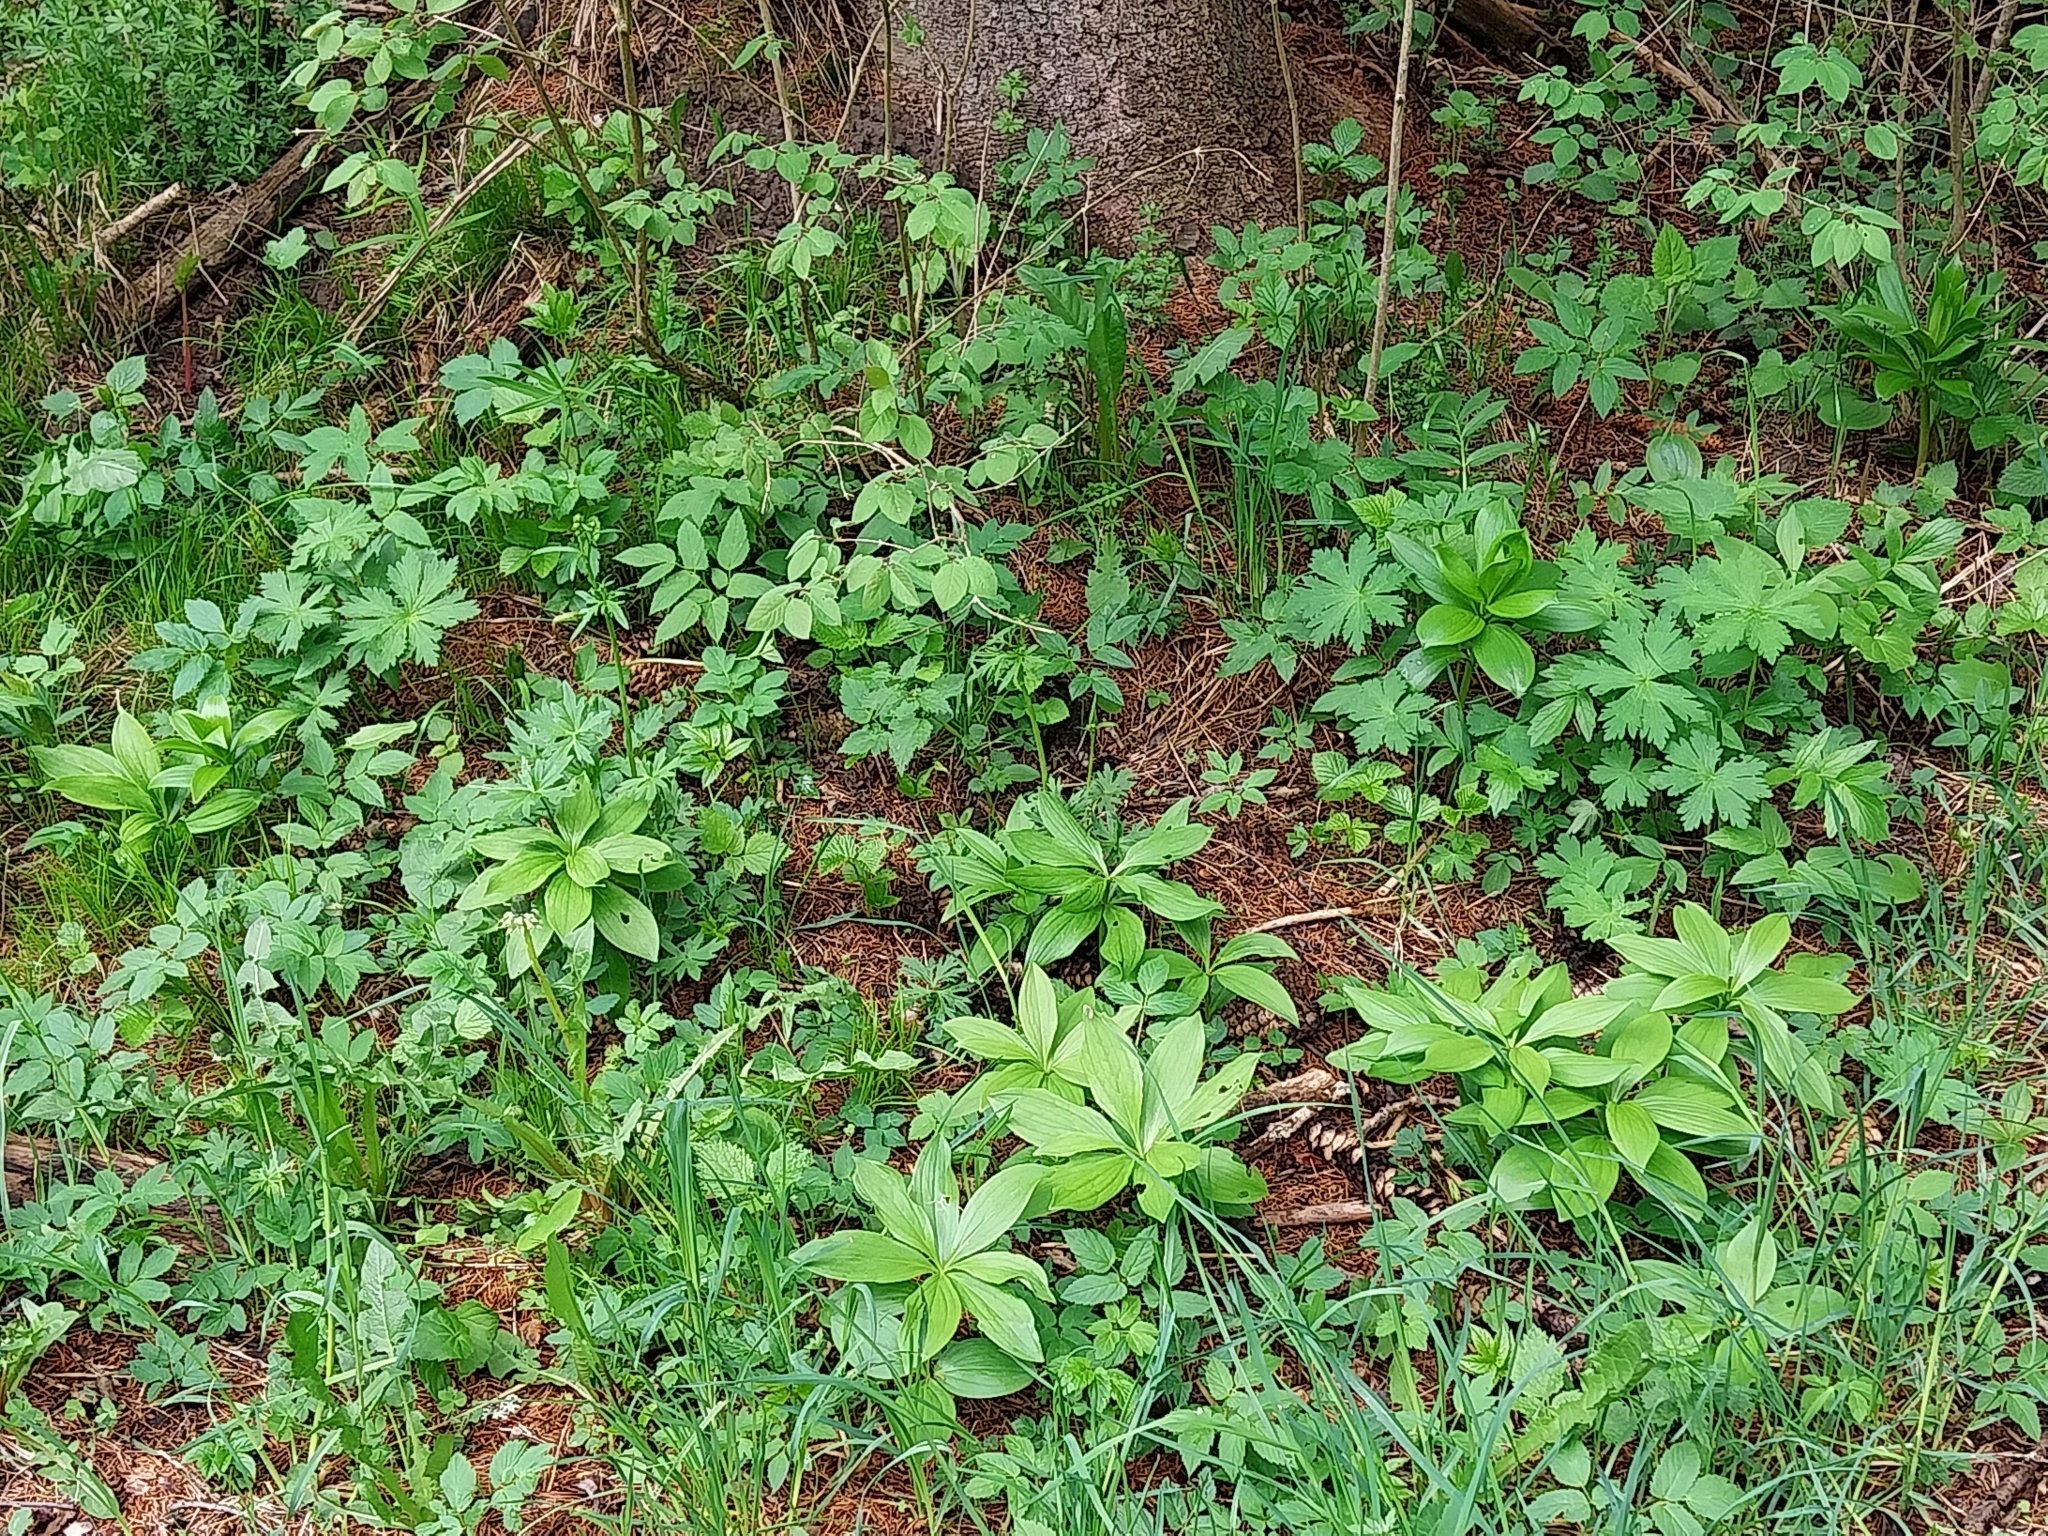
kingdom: Plantae
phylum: Tracheophyta
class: Liliopsida
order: Liliales
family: Liliaceae
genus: Lilium
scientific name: Lilium martagon
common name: Martagon lily
